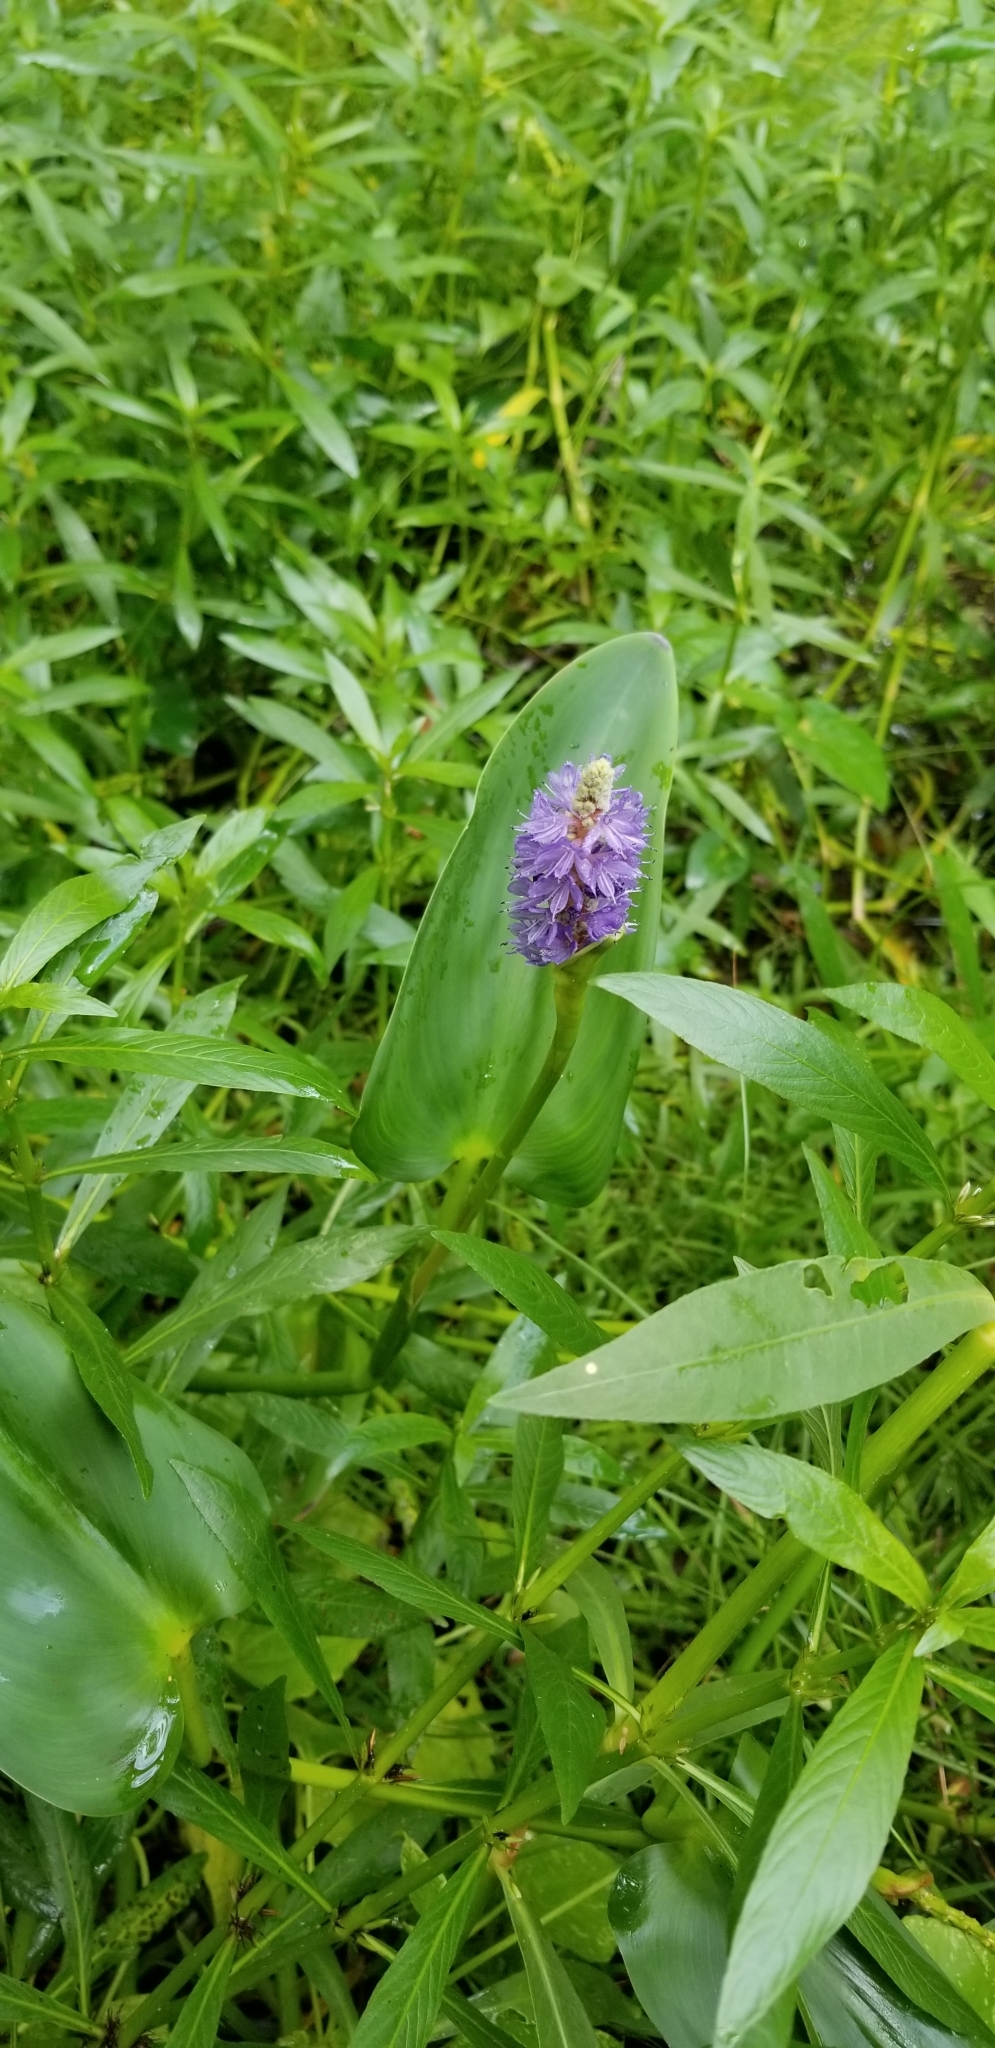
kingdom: Plantae
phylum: Tracheophyta
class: Liliopsida
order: Commelinales
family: Pontederiaceae
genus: Pontederia
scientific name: Pontederia cordata
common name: Pickerelweed
